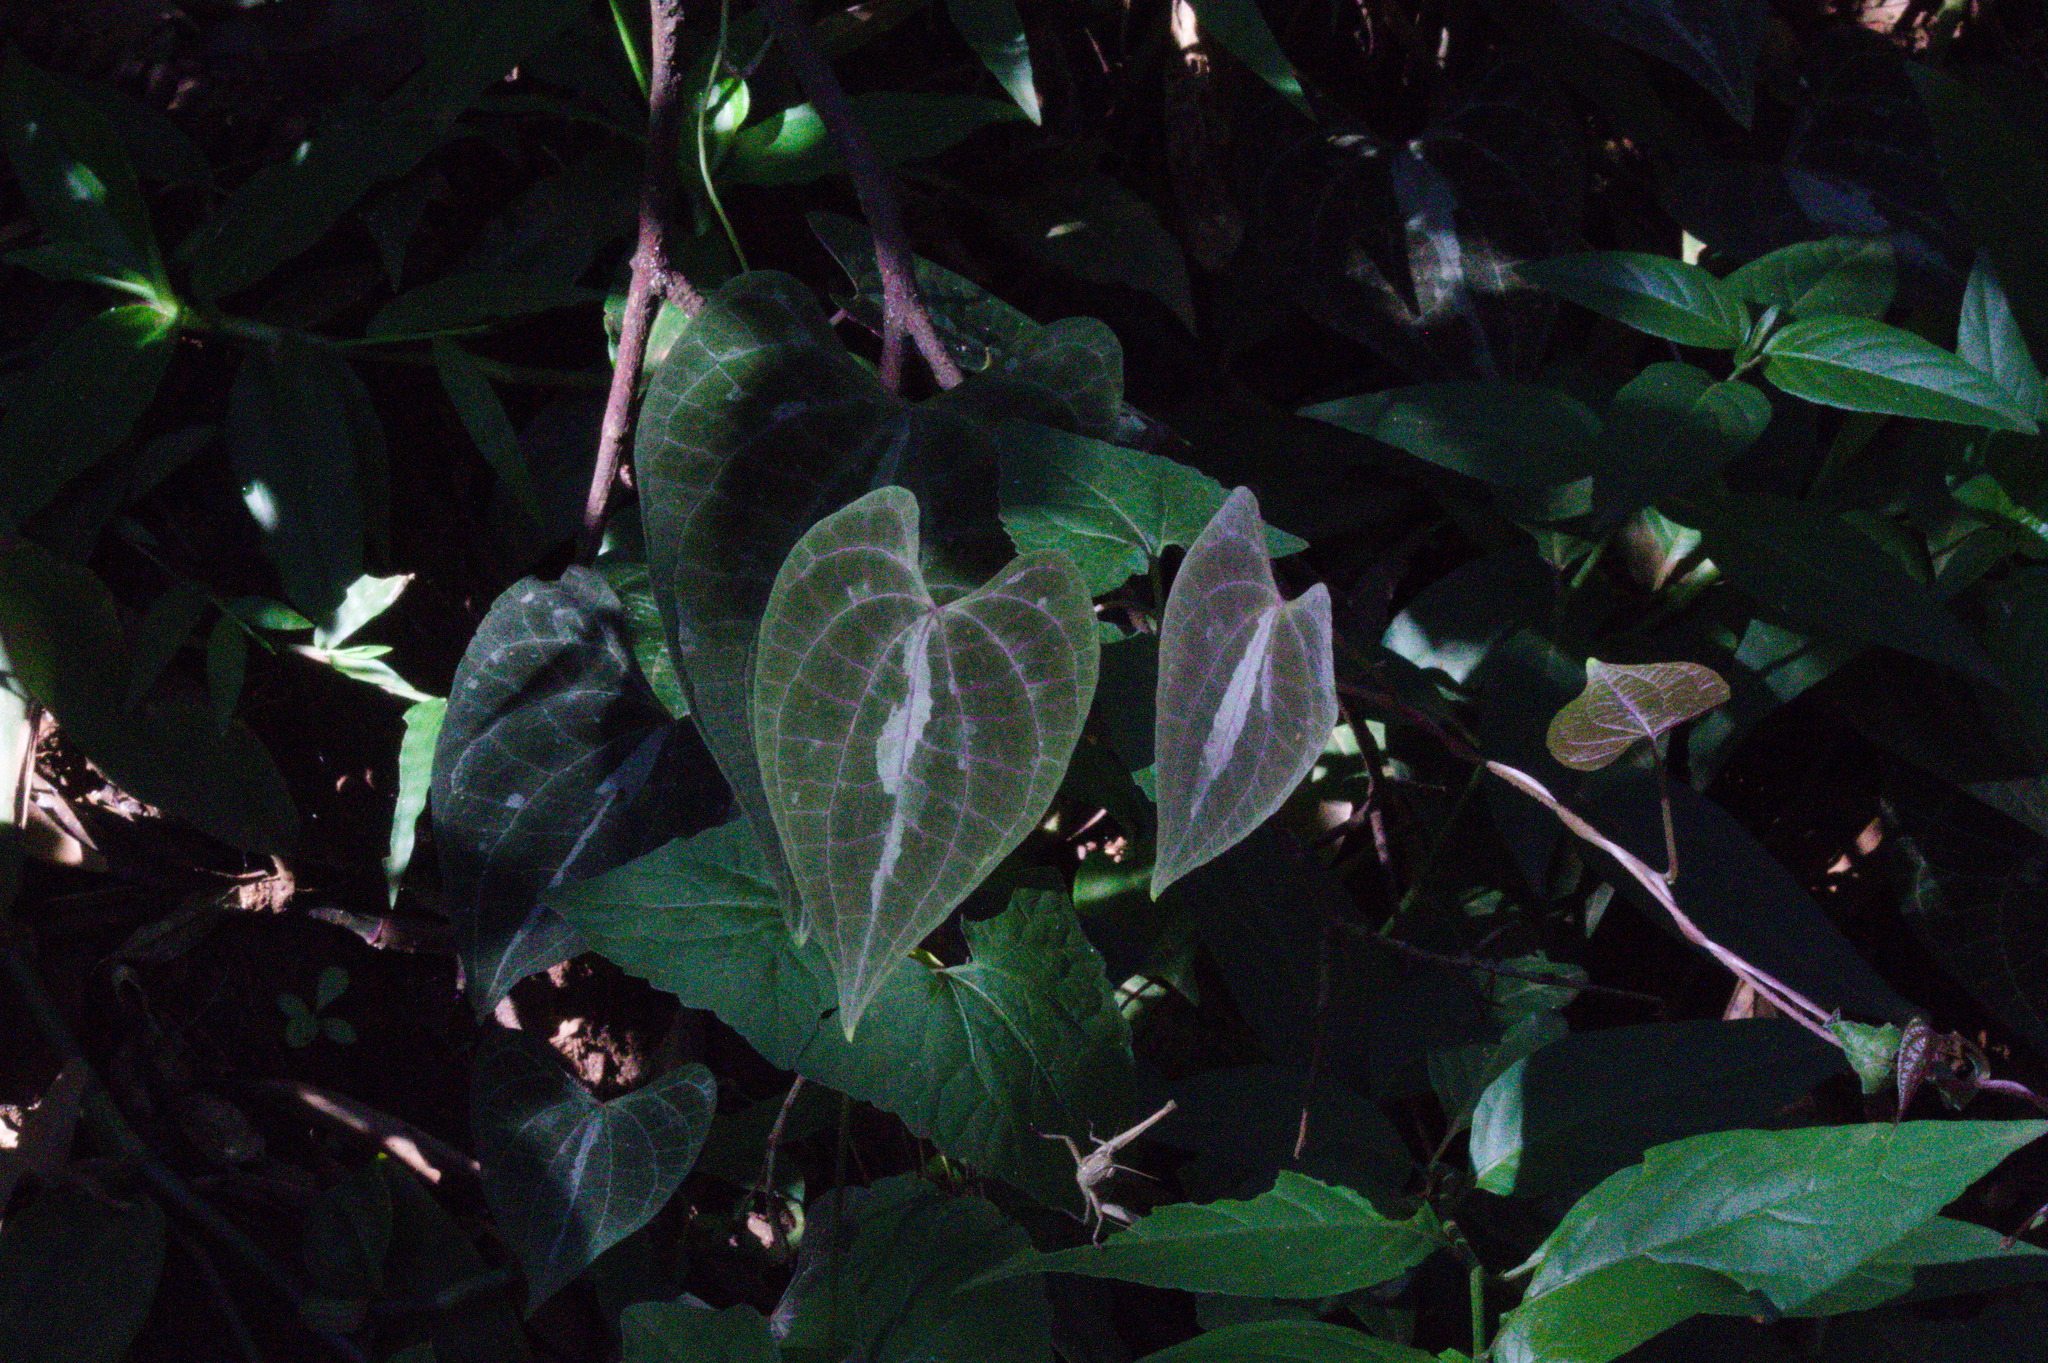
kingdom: Plantae
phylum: Tracheophyta
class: Liliopsida
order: Dioscoreales
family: Dioscoreaceae
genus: Dioscorea
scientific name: Dioscorea dodecaneura
